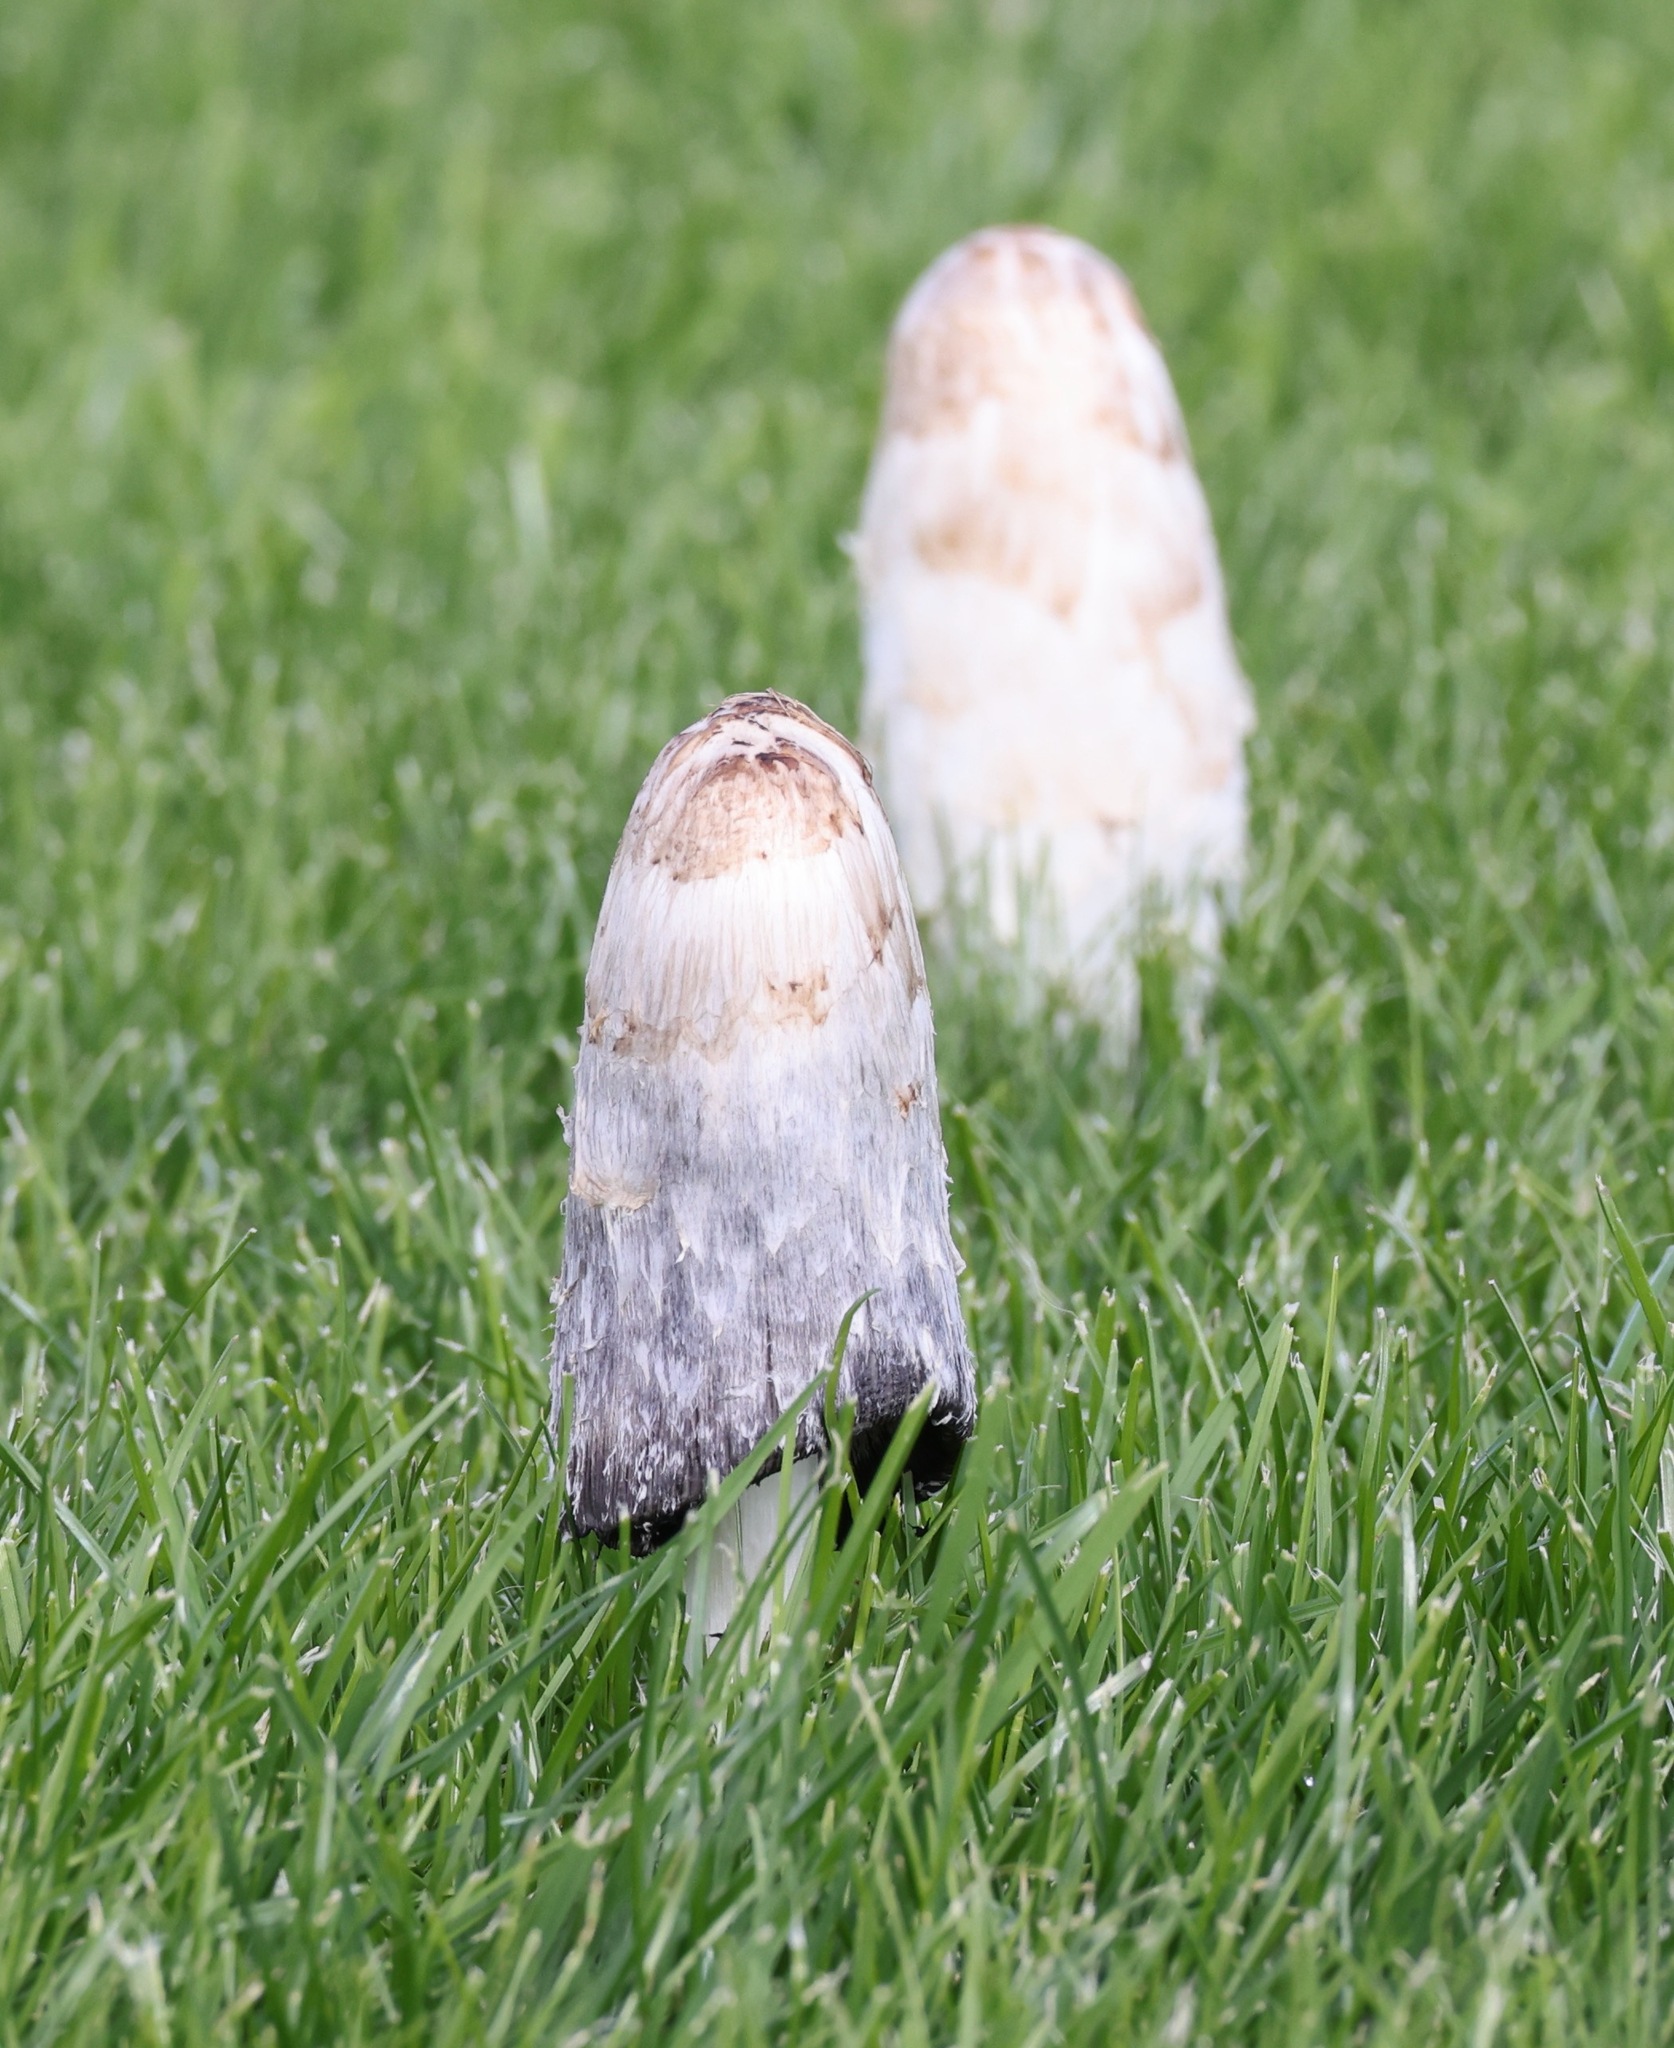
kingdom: Fungi
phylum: Basidiomycota
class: Agaricomycetes
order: Agaricales
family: Agaricaceae
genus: Coprinus
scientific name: Coprinus comatus
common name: Lawyer's wig
